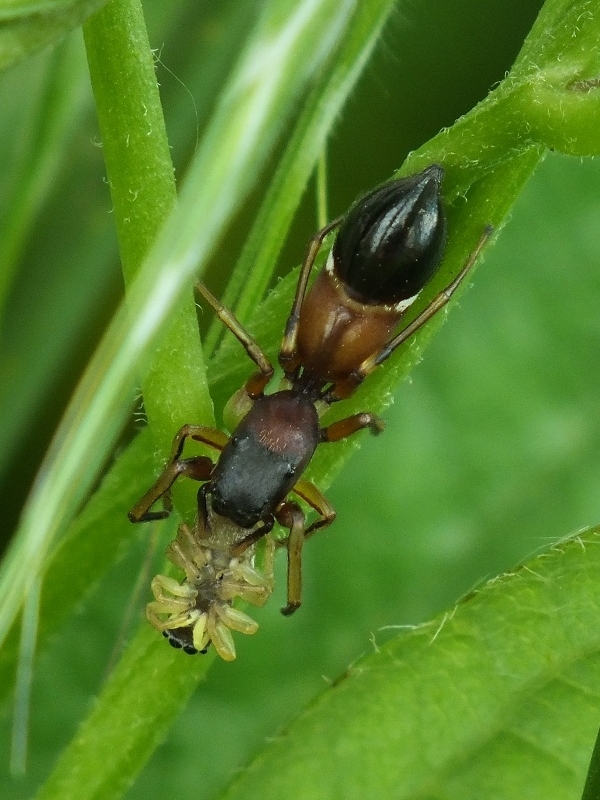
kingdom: Animalia
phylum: Arthropoda
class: Arachnida
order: Araneae
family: Salticidae
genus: Leptorchestes
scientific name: Leptorchestes berolinensis
